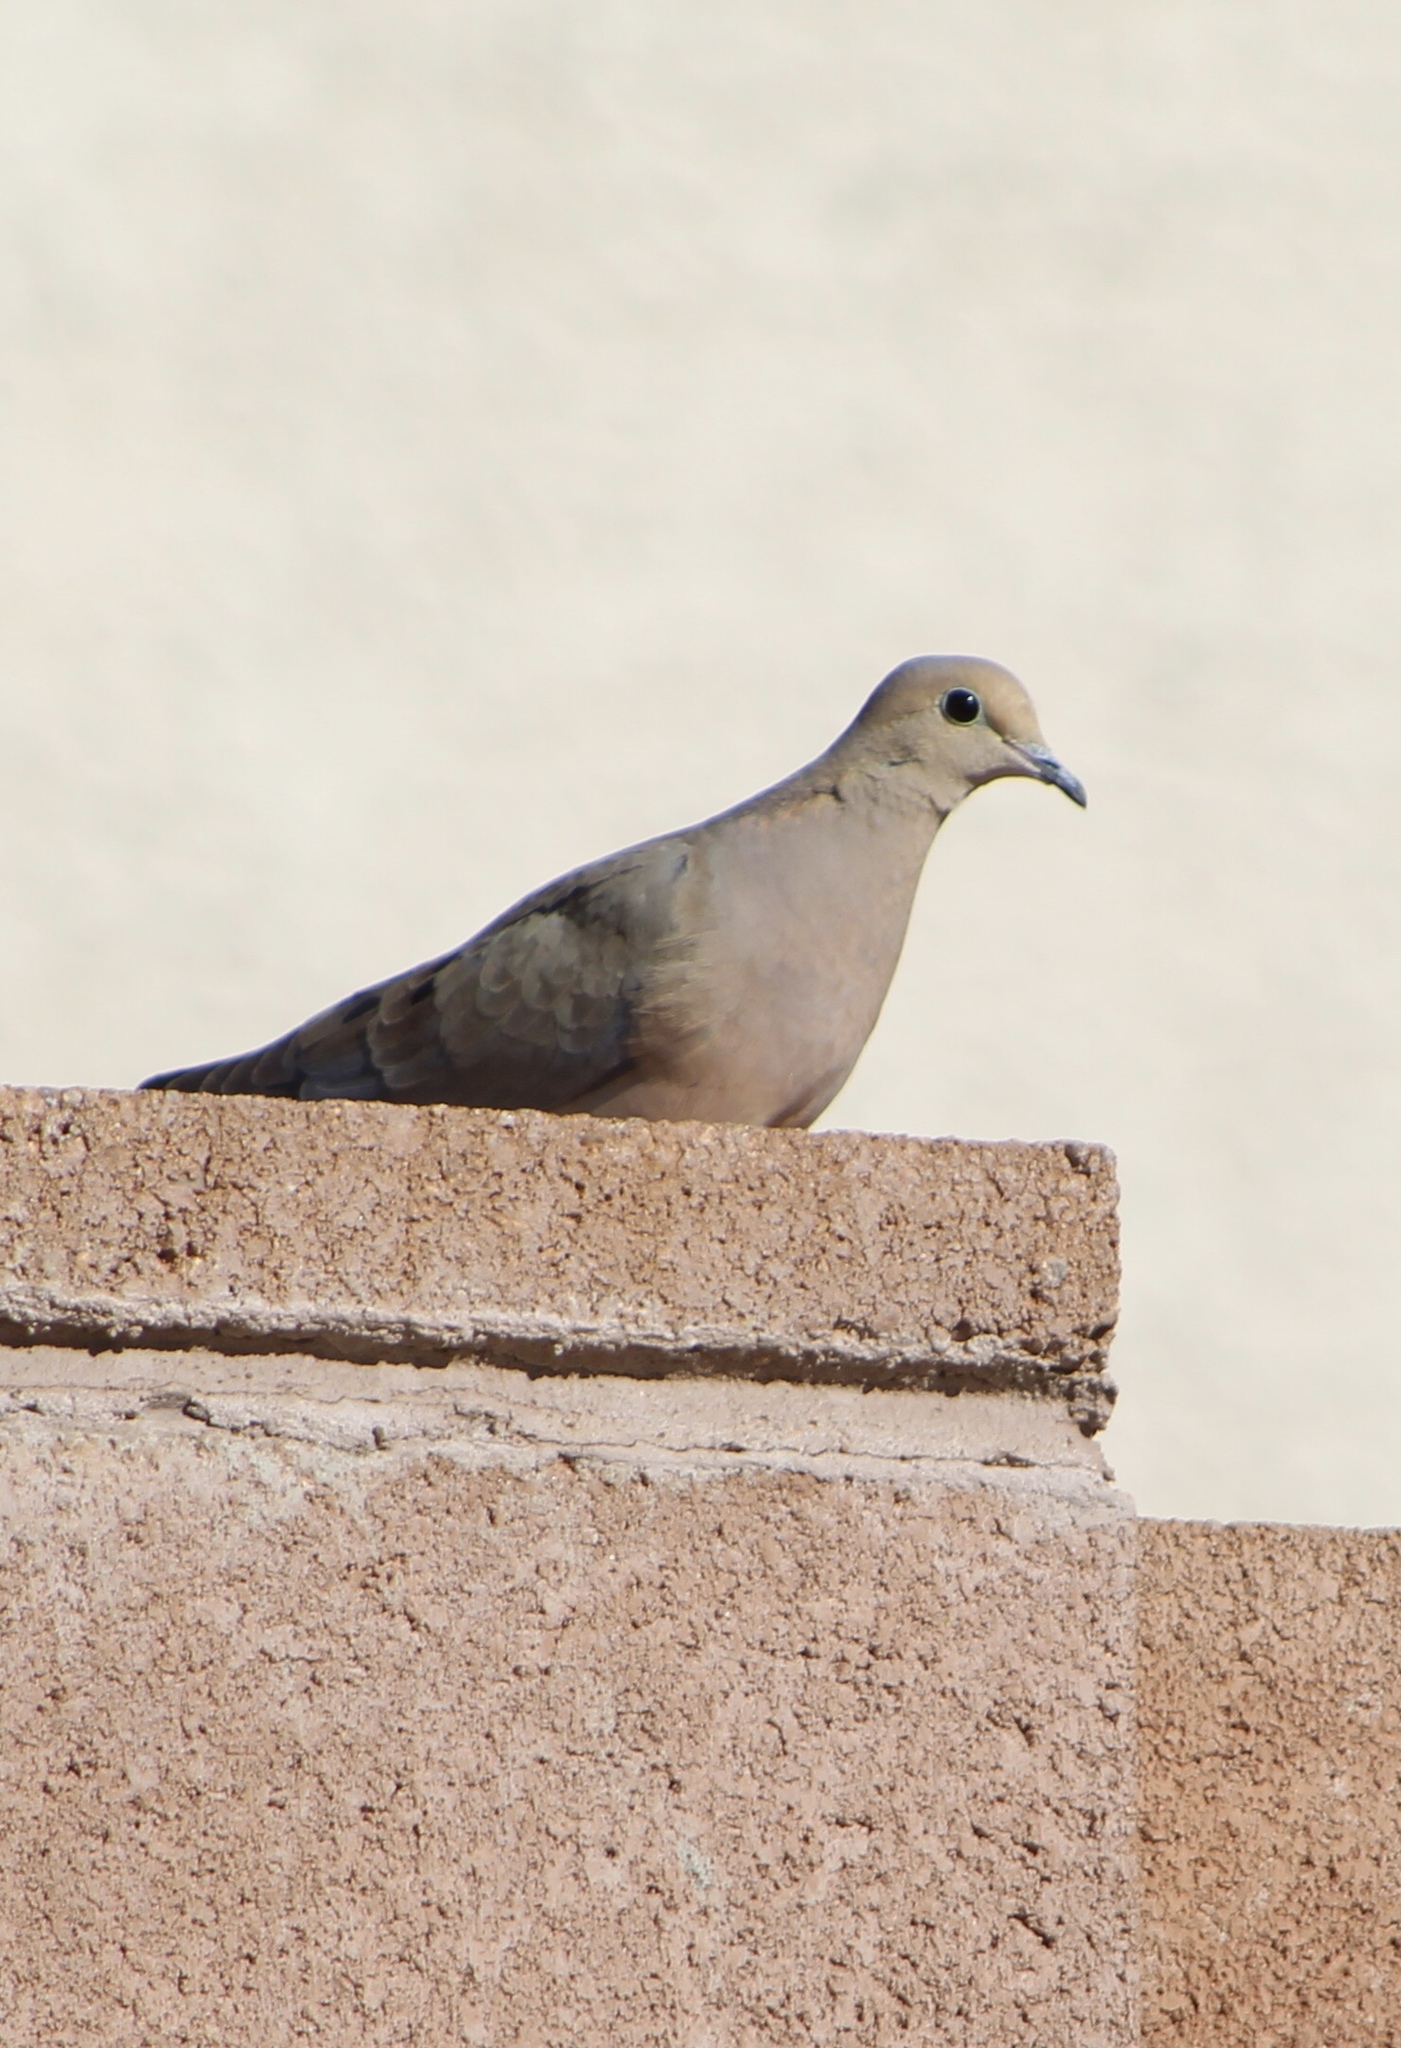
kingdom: Animalia
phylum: Chordata
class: Aves
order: Columbiformes
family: Columbidae
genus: Zenaida
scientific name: Zenaida macroura
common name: Mourning dove
